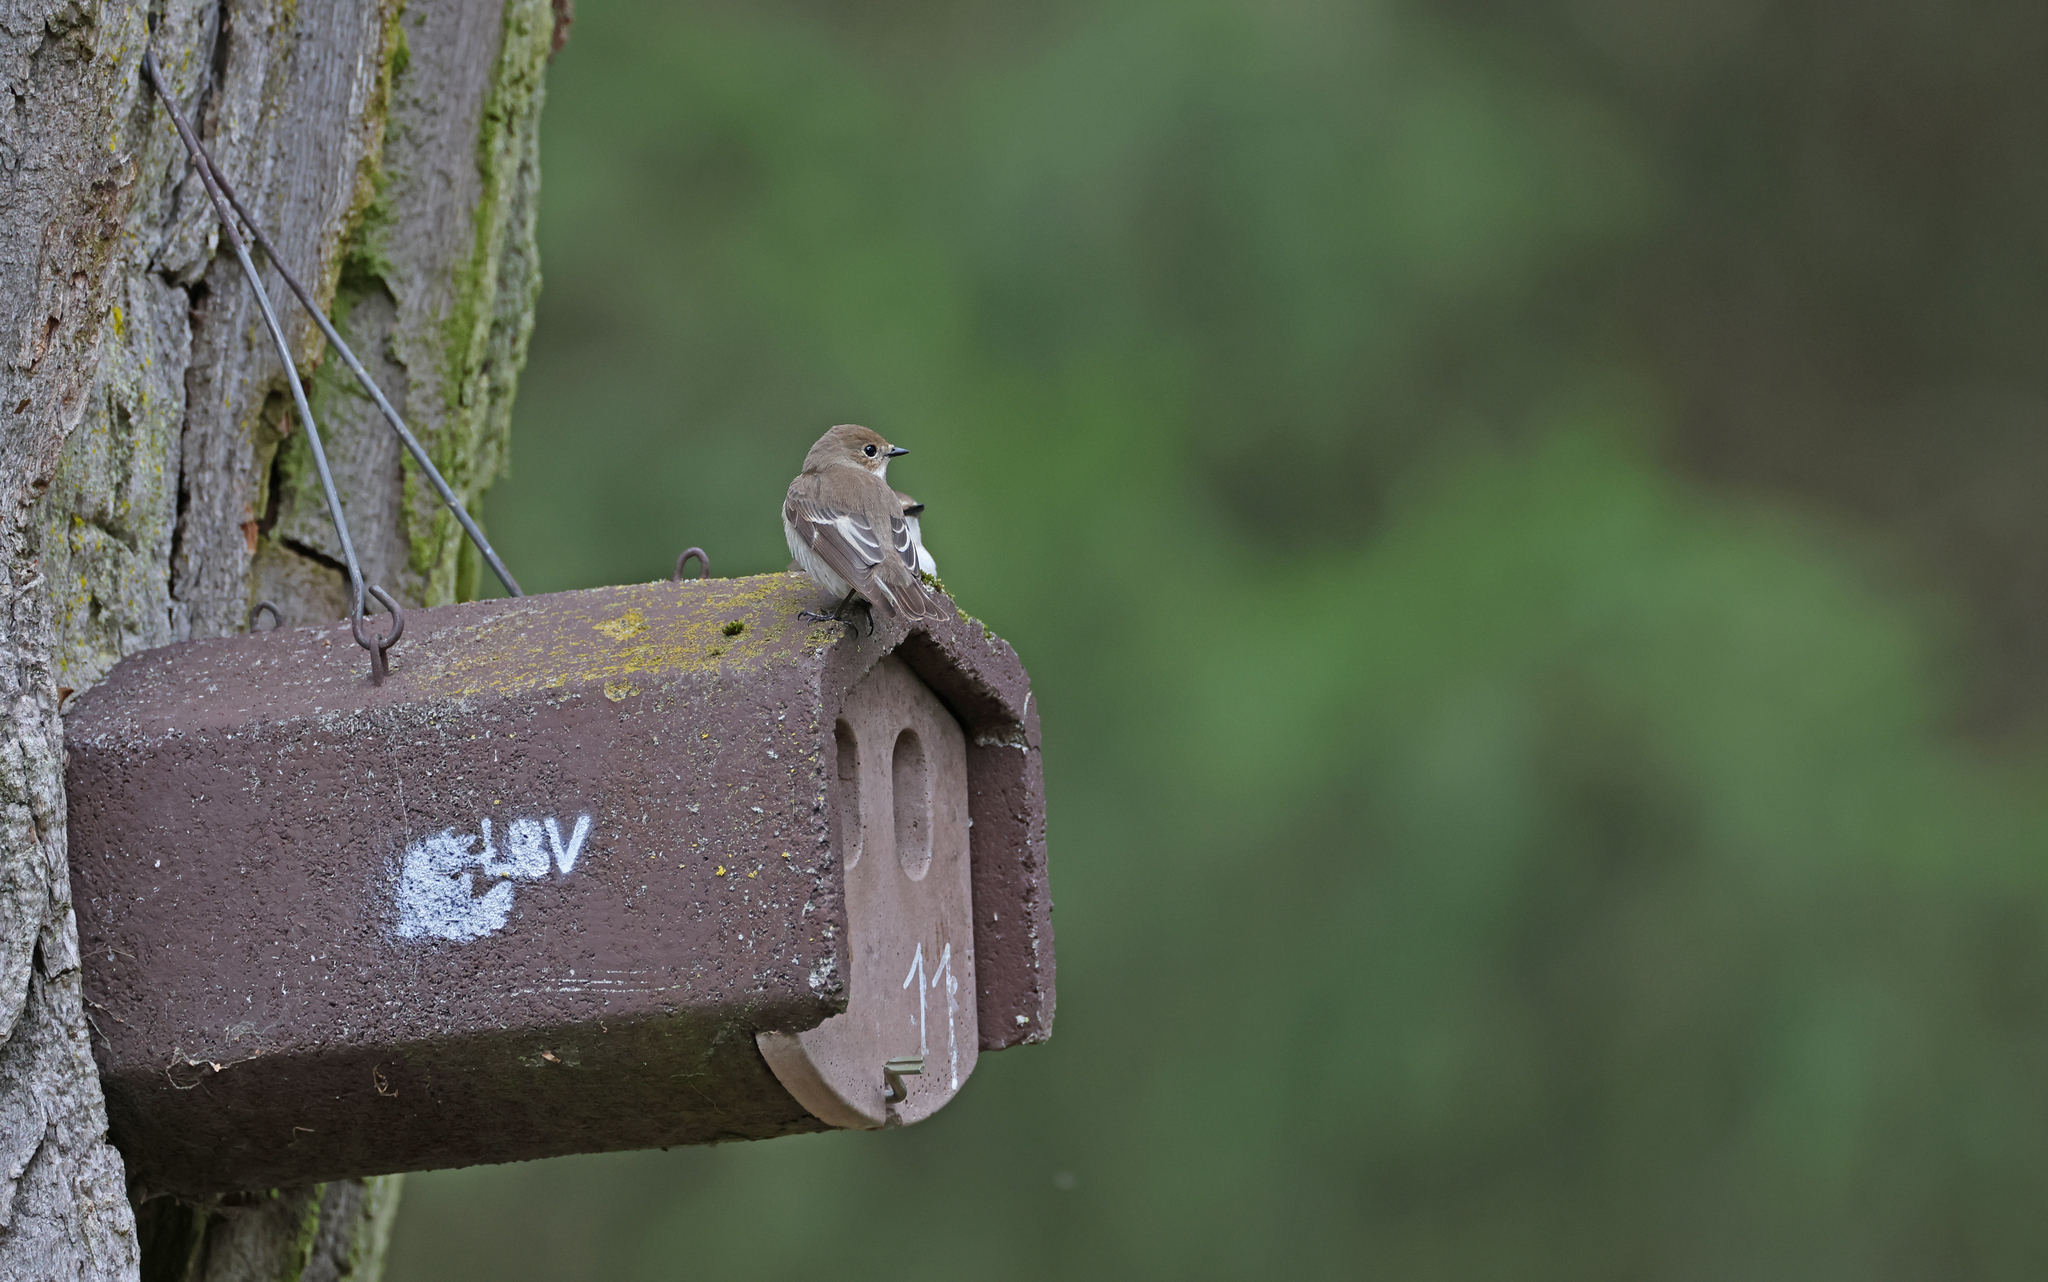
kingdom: Animalia
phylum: Chordata
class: Aves
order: Passeriformes
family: Muscicapidae
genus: Ficedula
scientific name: Ficedula hypoleuca
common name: European pied flycatcher
